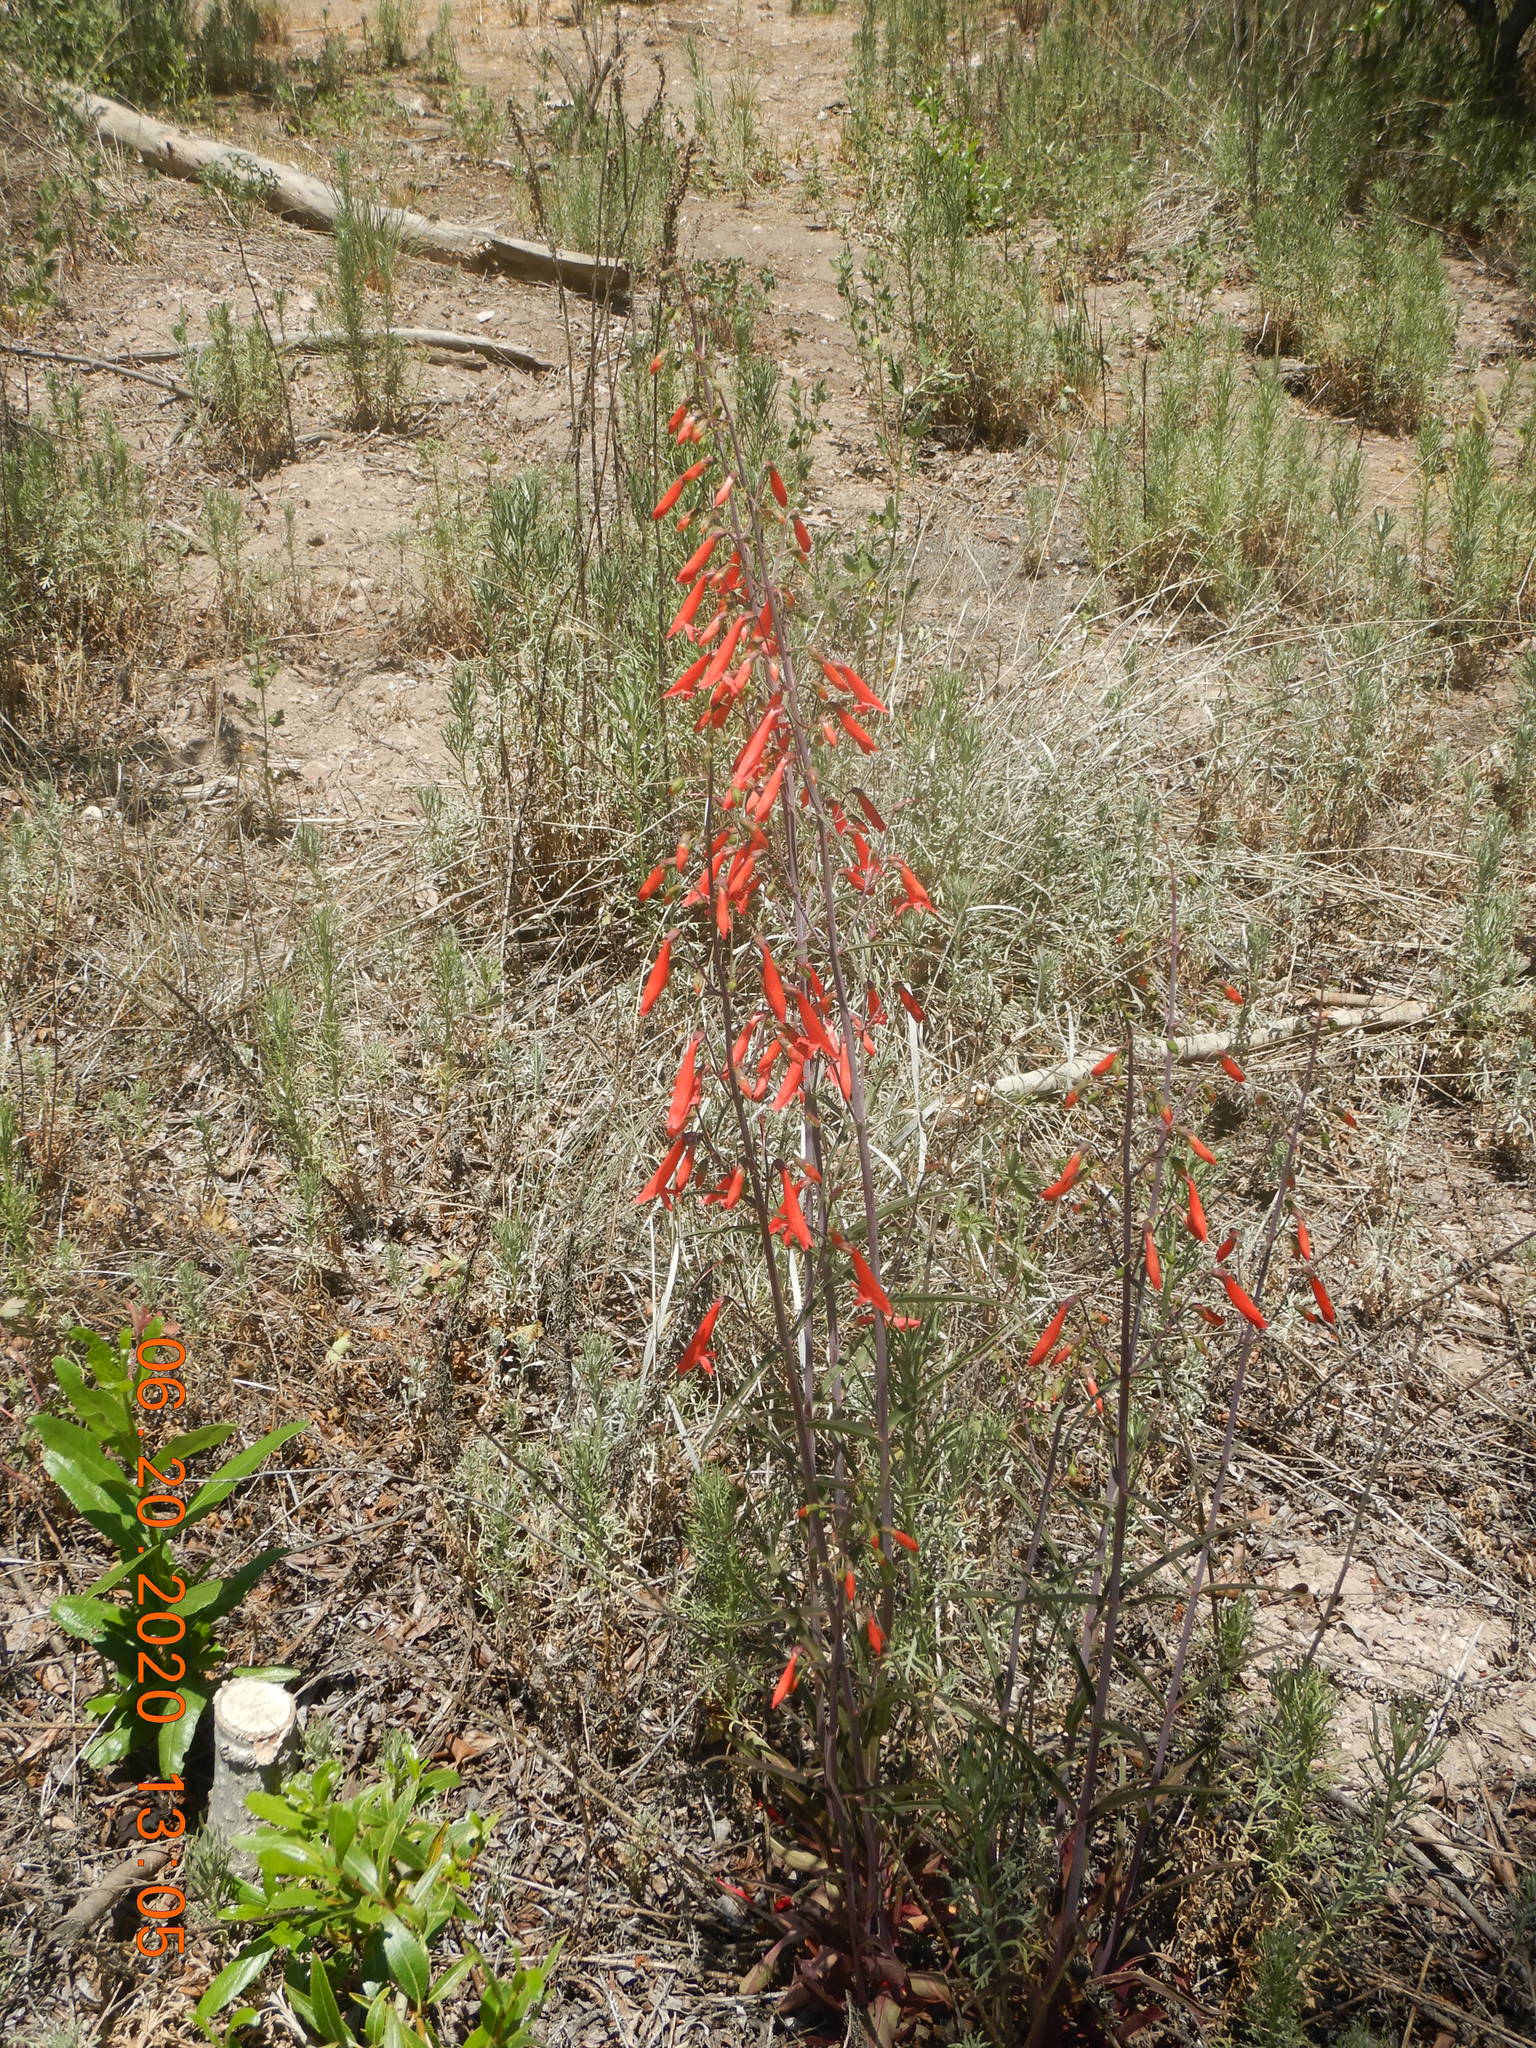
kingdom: Plantae
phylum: Tracheophyta
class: Magnoliopsida
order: Lamiales
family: Plantaginaceae
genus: Penstemon
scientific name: Penstemon barbatus
